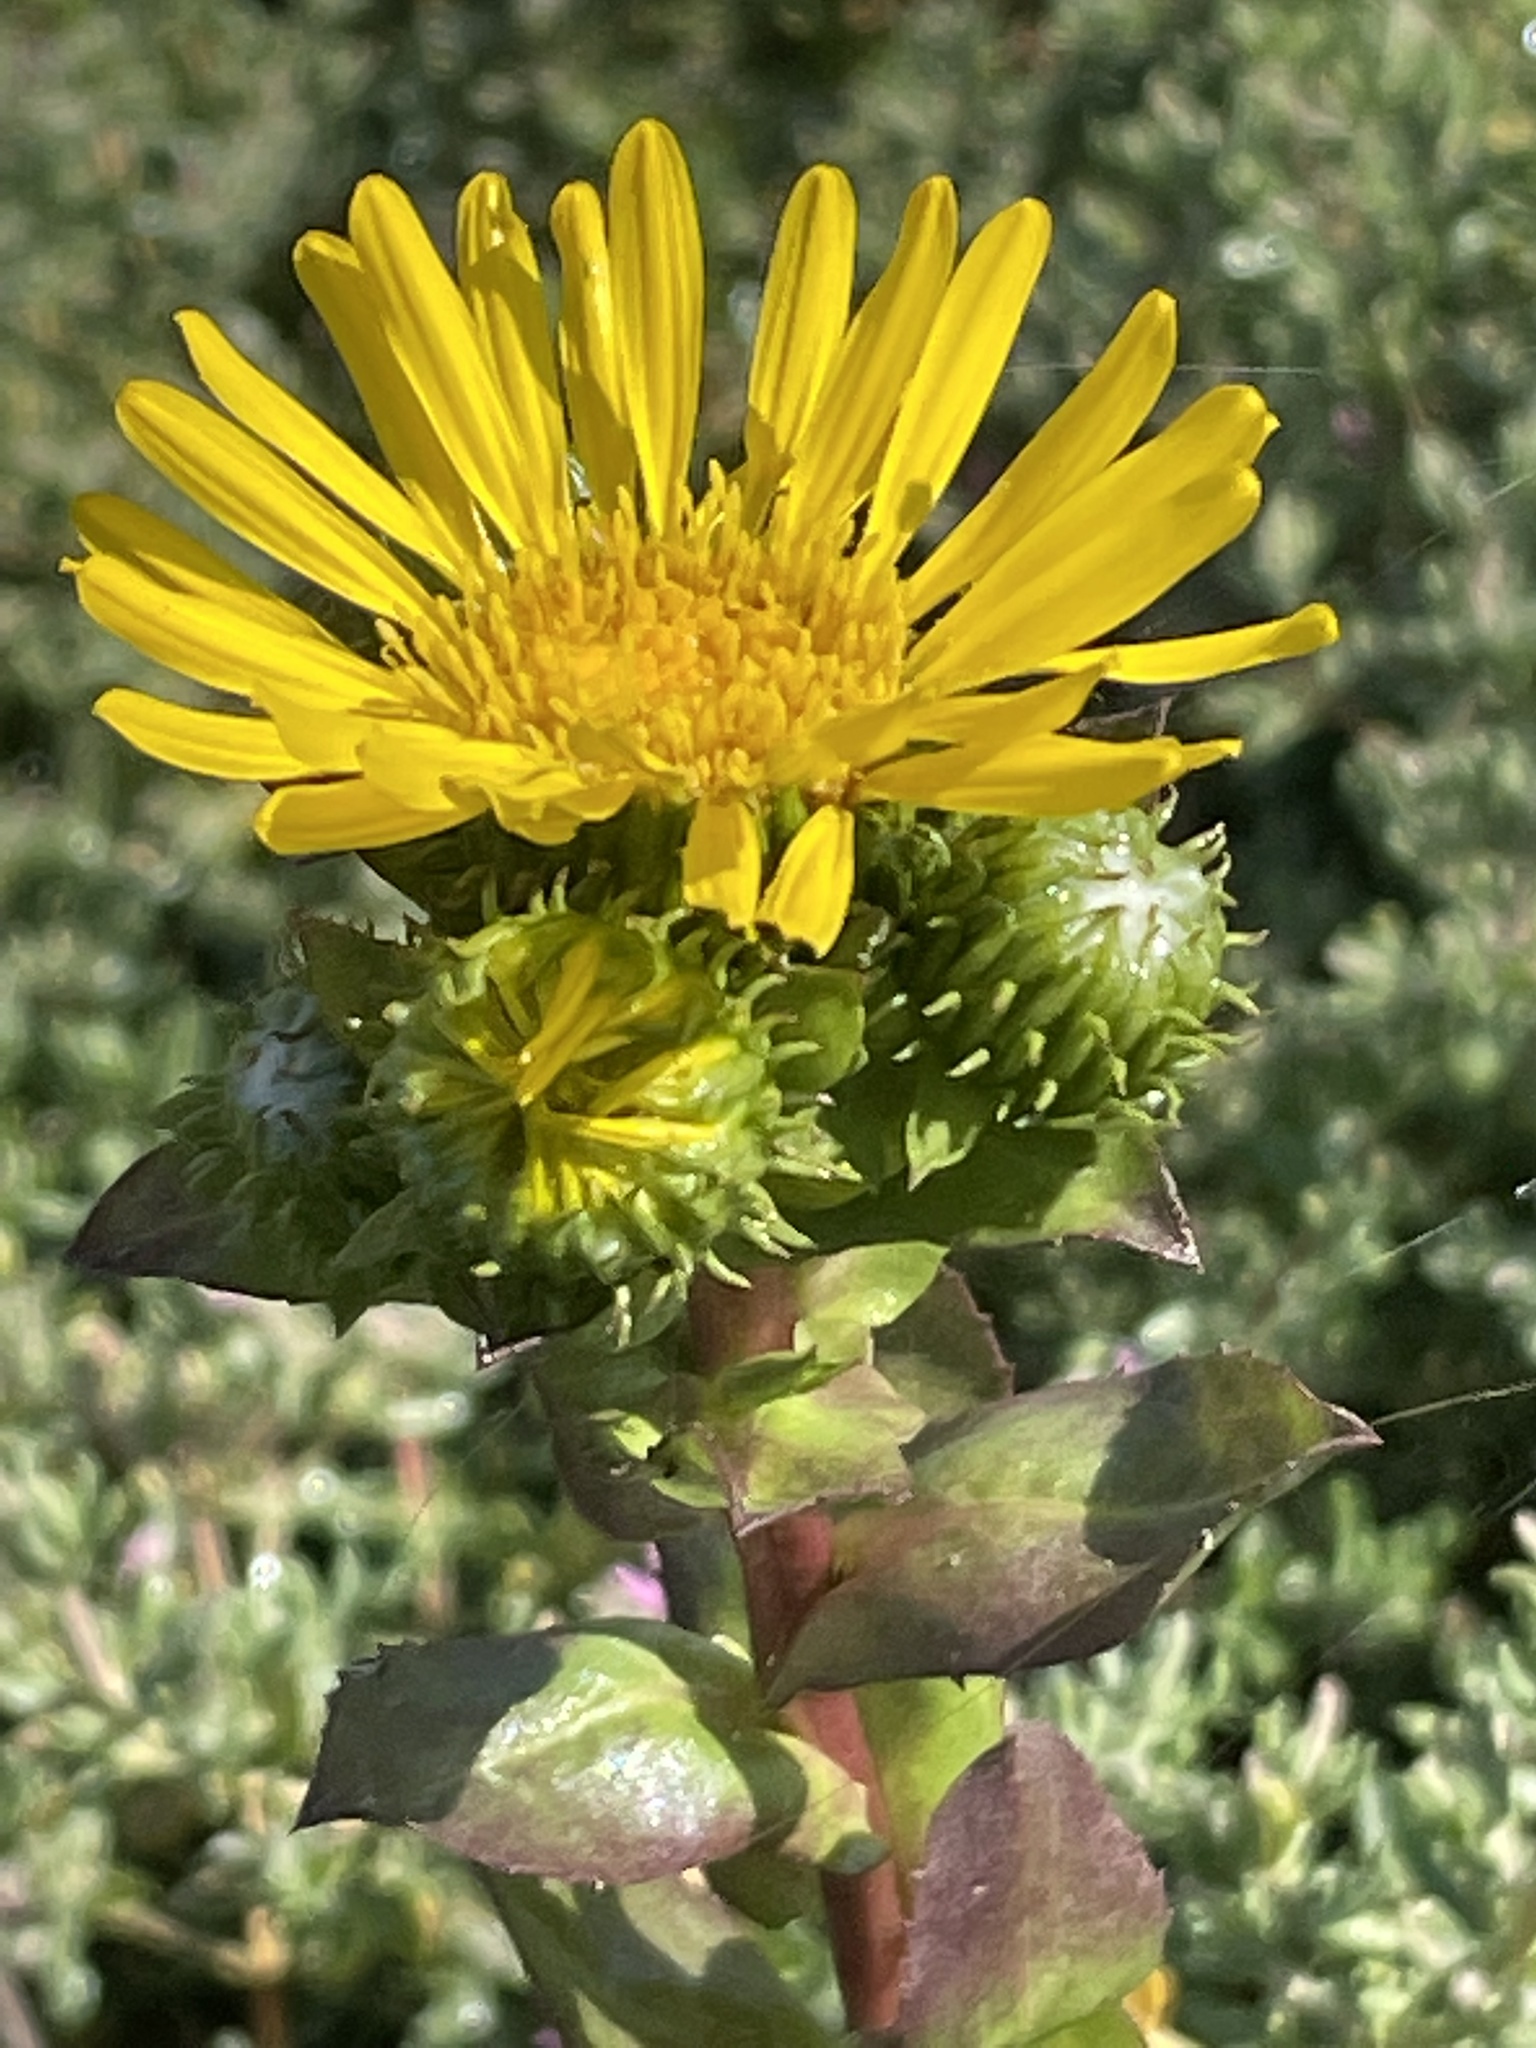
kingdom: Plantae
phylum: Tracheophyta
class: Magnoliopsida
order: Asterales
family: Asteraceae
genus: Grindelia
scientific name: Grindelia hirsutula
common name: Hairy gumweed
